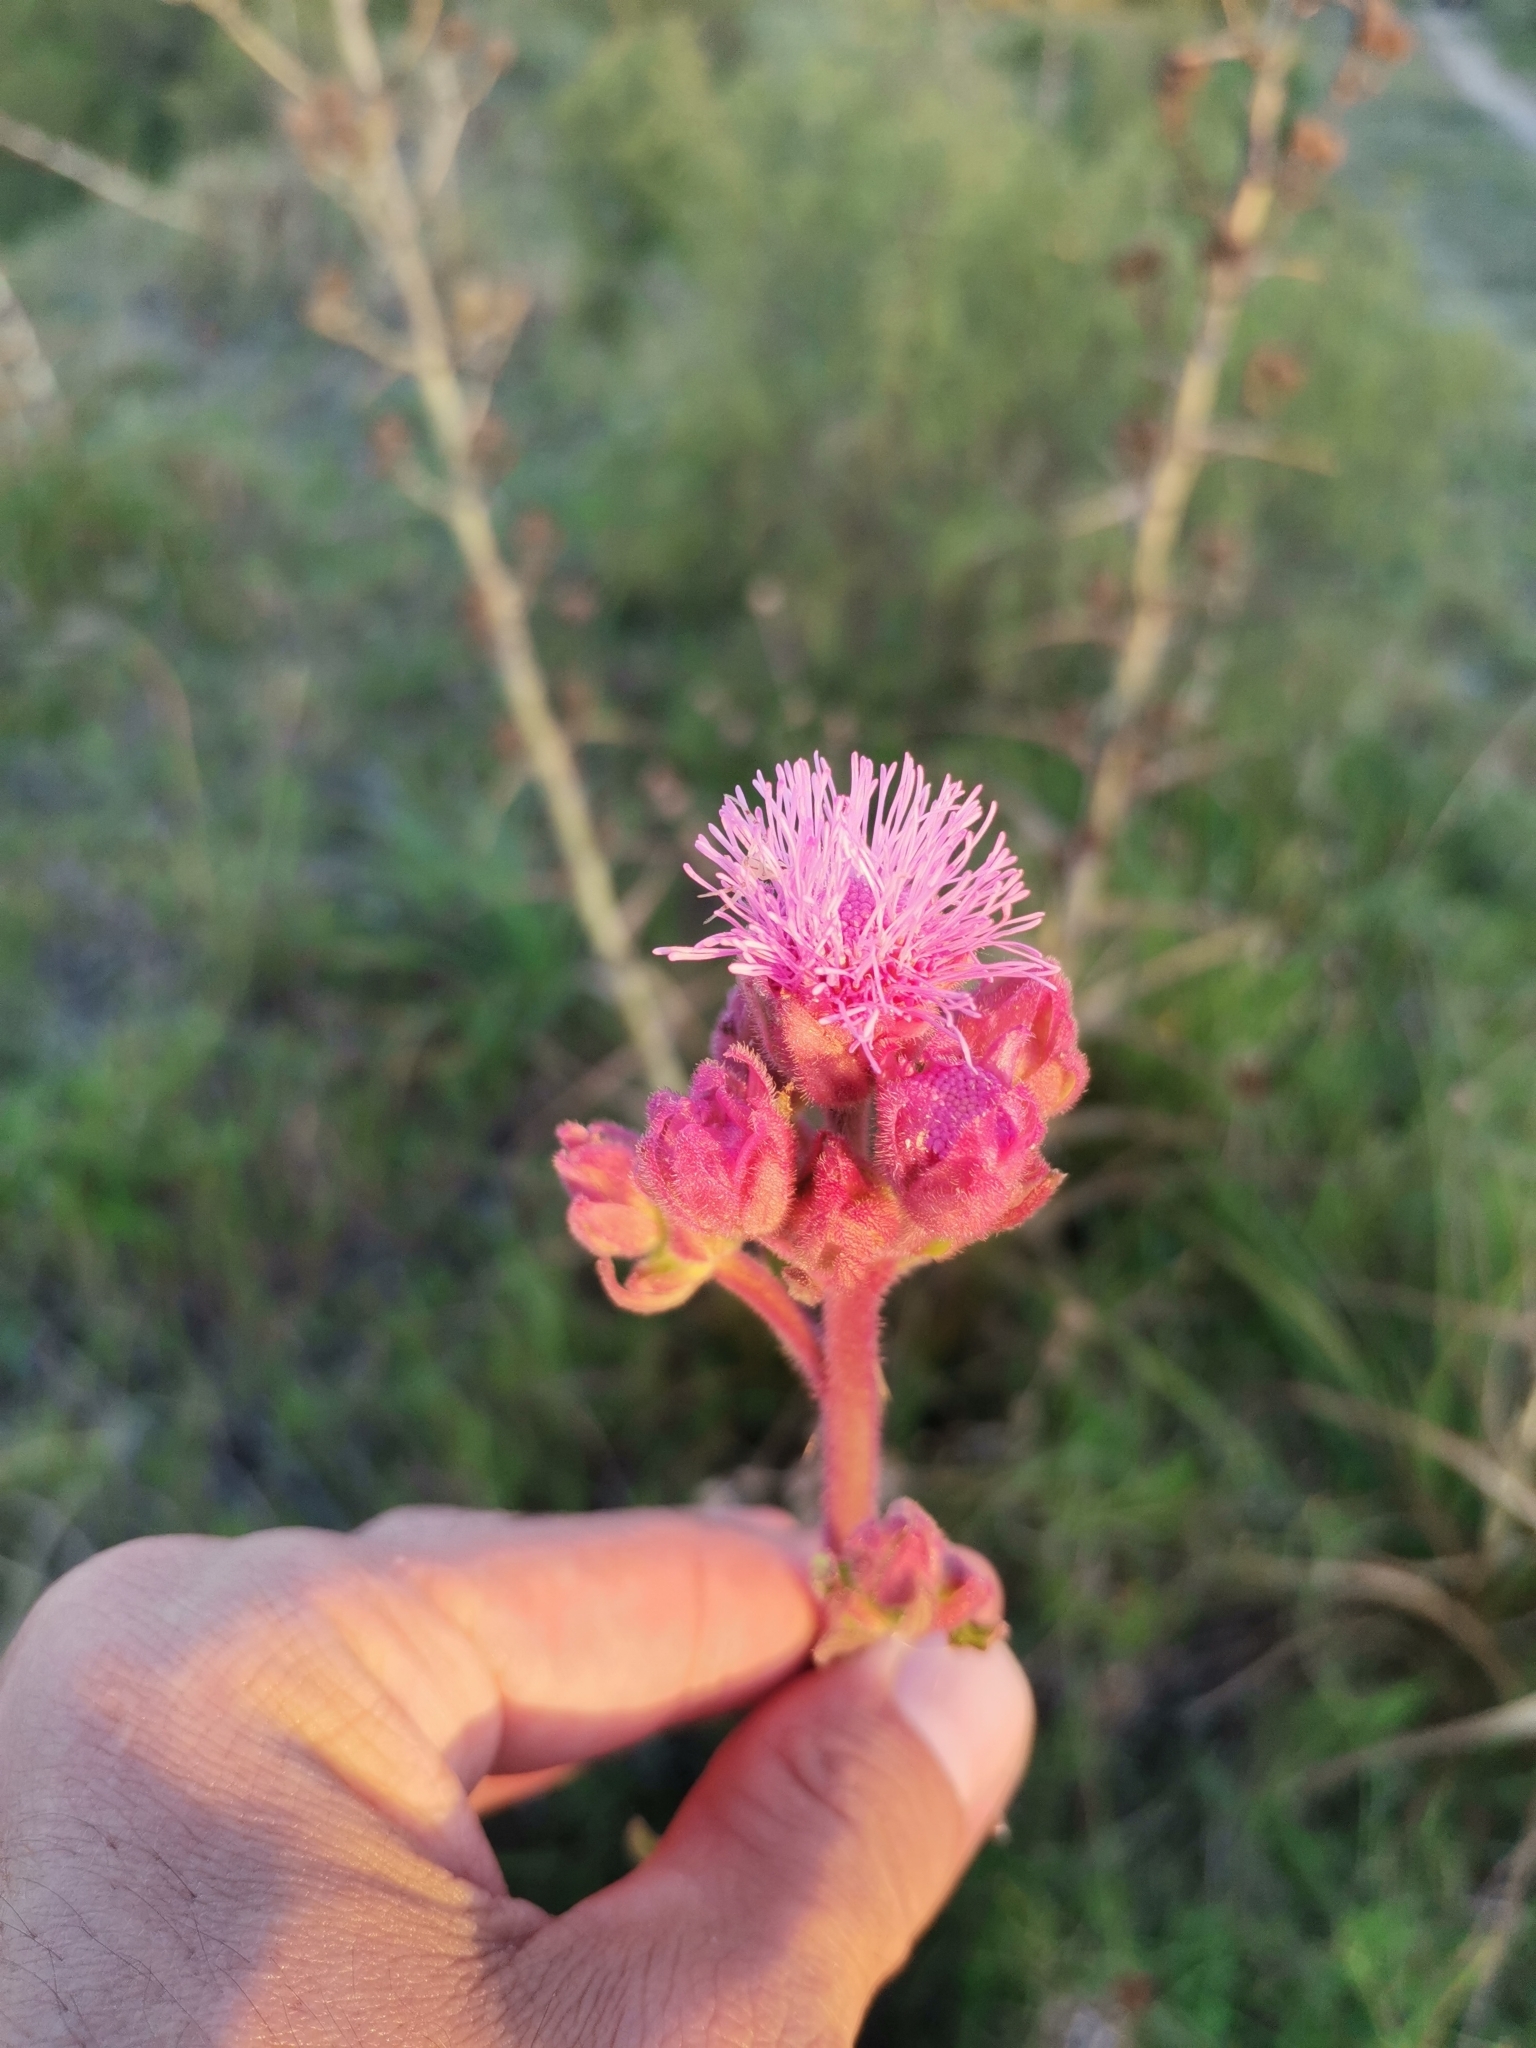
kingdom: Plantae
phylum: Tracheophyta
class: Magnoliopsida
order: Asterales
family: Asteraceae
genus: Campuloclinium
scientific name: Campuloclinium macrocephalum
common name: Pompomweed
